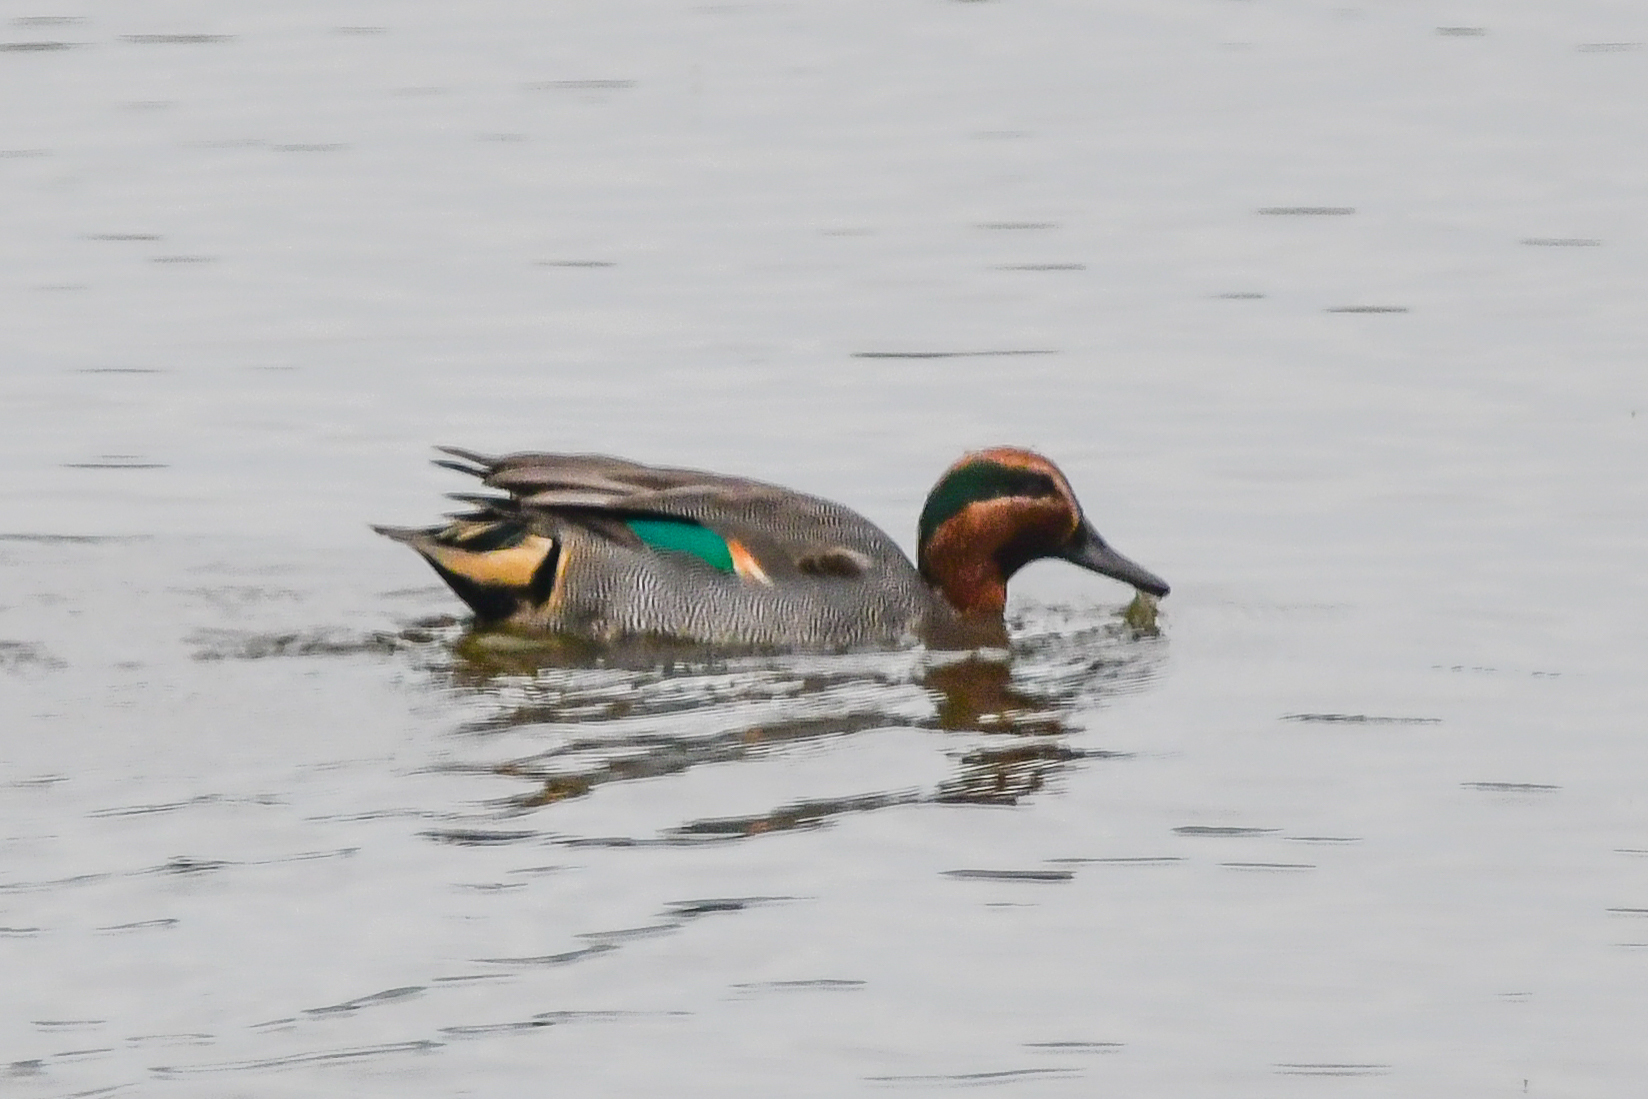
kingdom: Animalia
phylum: Chordata
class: Aves
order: Anseriformes
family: Anatidae
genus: Anas
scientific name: Anas crecca
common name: Eurasian teal
